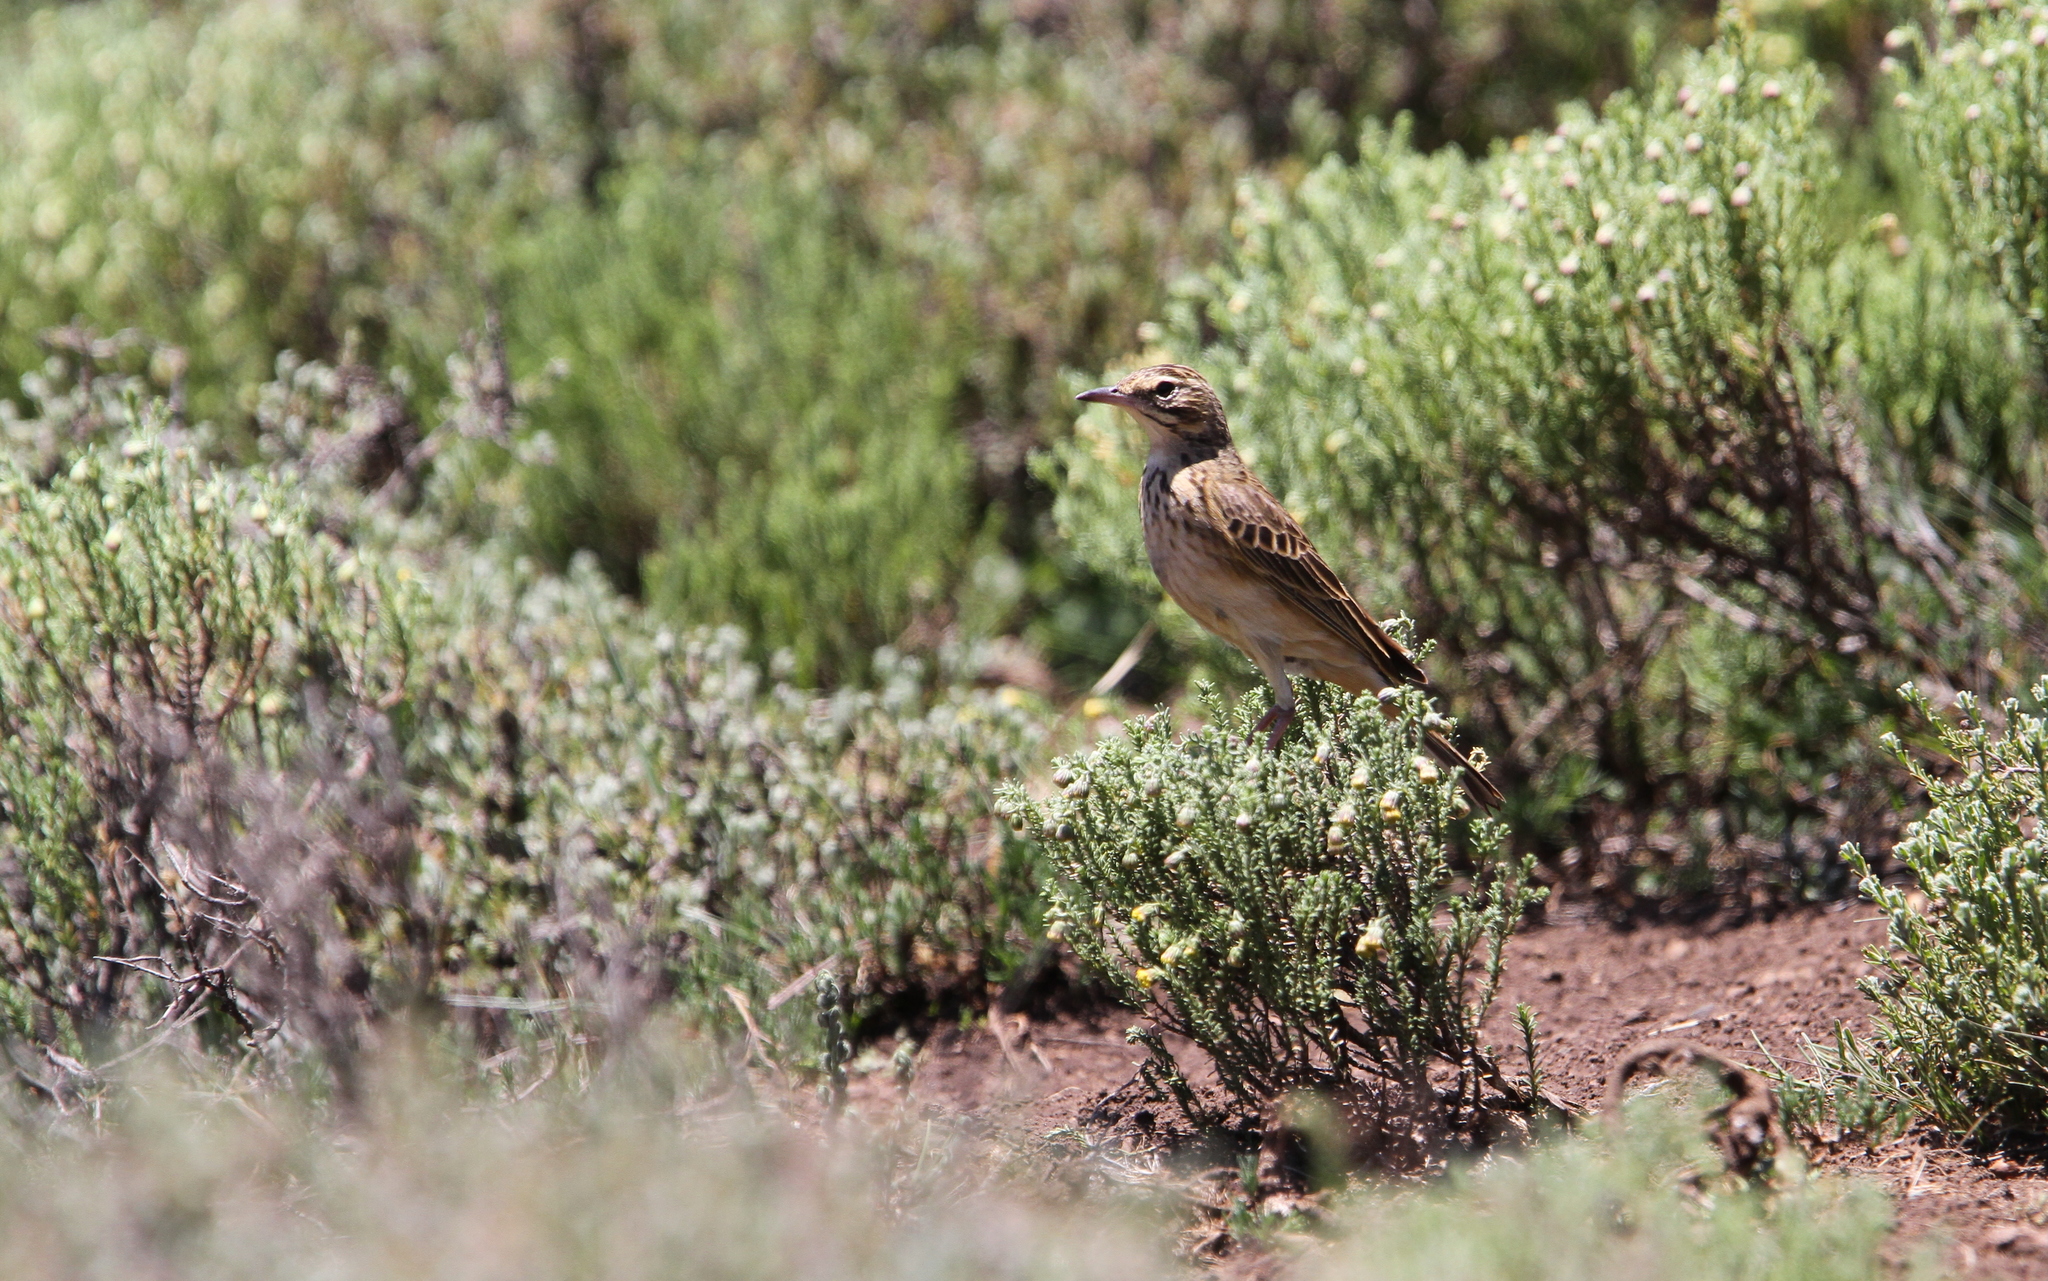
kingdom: Animalia
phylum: Chordata
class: Aves
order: Passeriformes
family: Motacillidae
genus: Anthus
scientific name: Anthus hoeschi
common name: Mountain pipit
